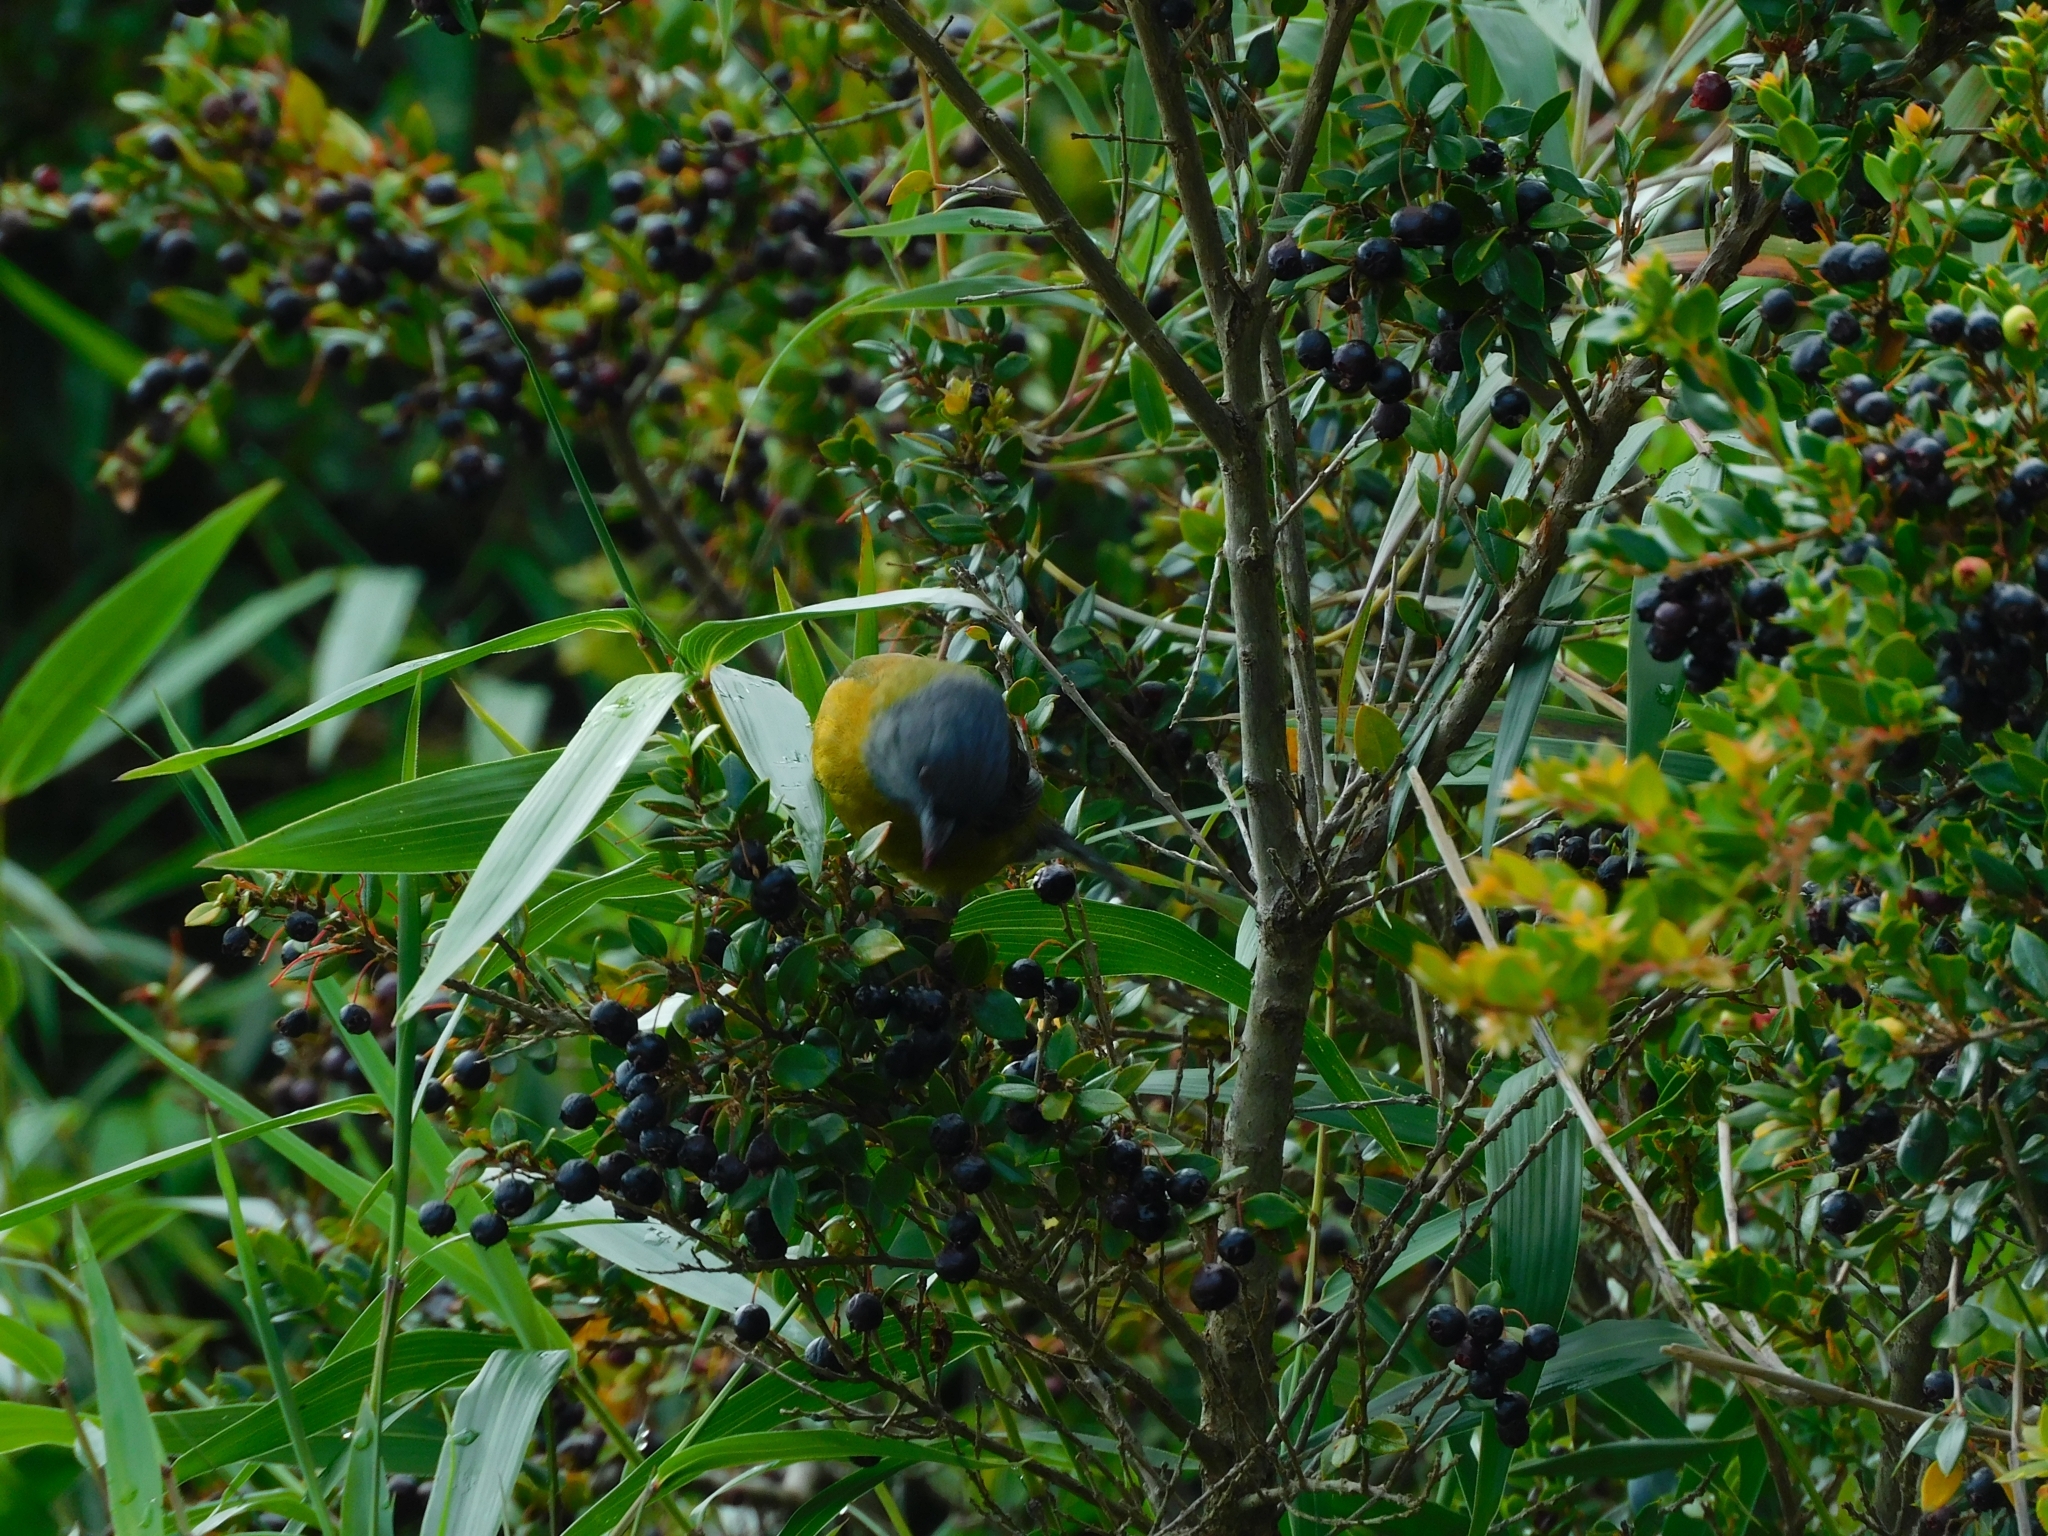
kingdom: Animalia
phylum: Chordata
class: Aves
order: Passeriformes
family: Thraupidae
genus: Phrygilus
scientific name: Phrygilus patagonicus
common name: Patagonian sierra finch
